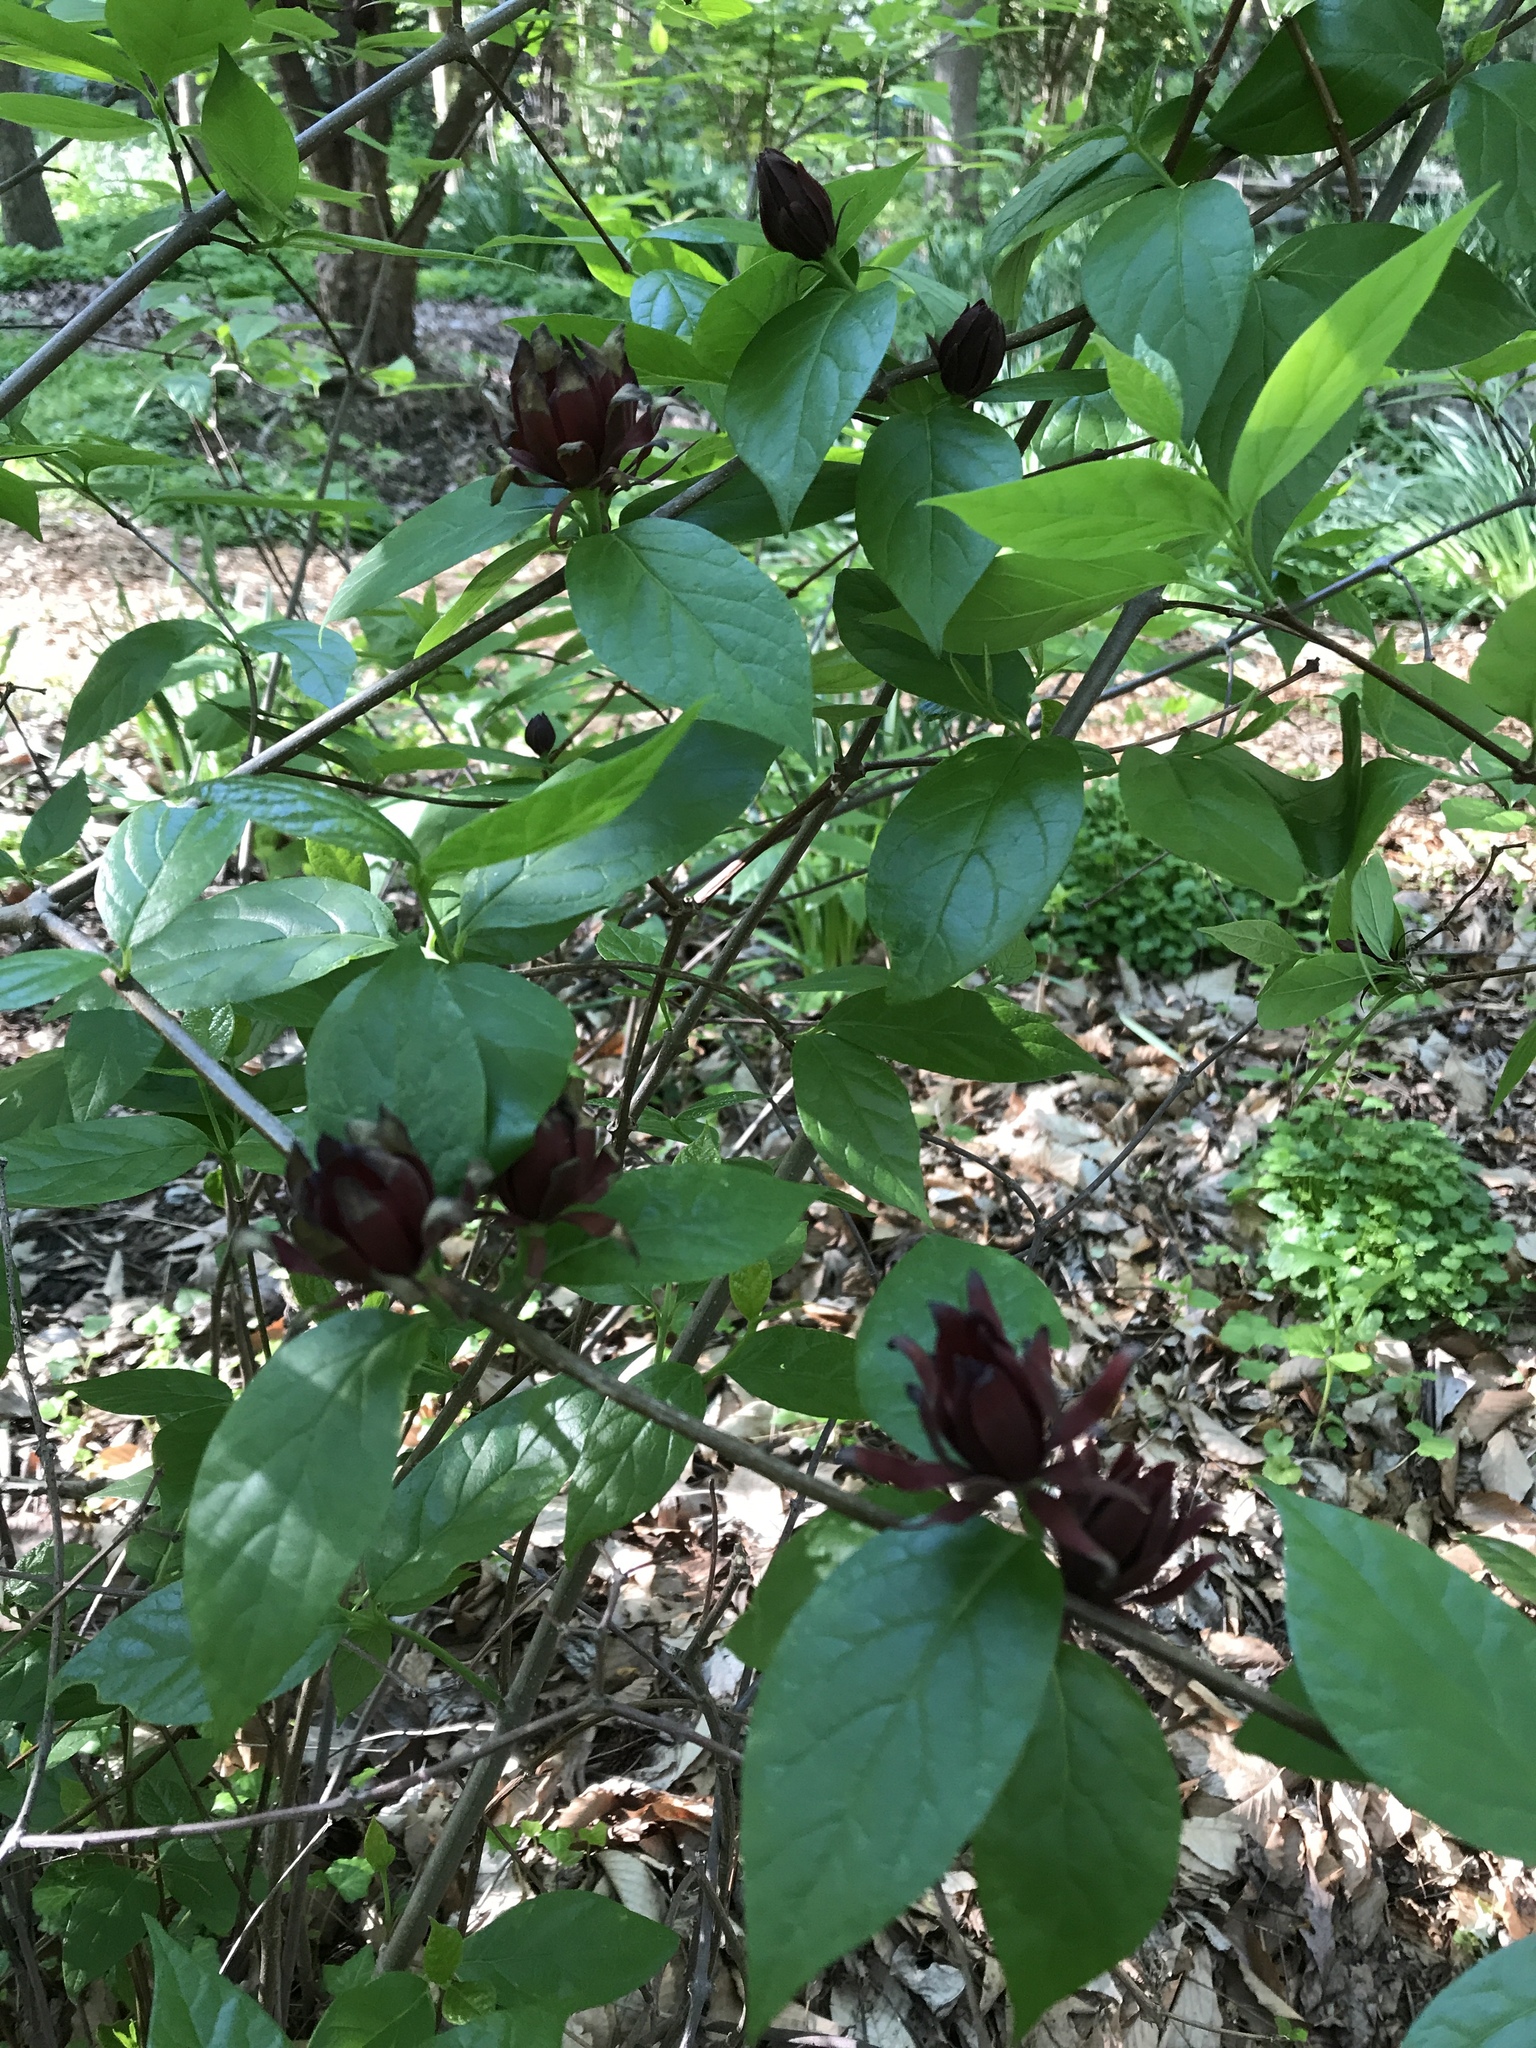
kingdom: Plantae
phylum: Tracheophyta
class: Magnoliopsida
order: Laurales
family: Calycanthaceae
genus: Calycanthus
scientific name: Calycanthus floridus
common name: Carolina-allspice
